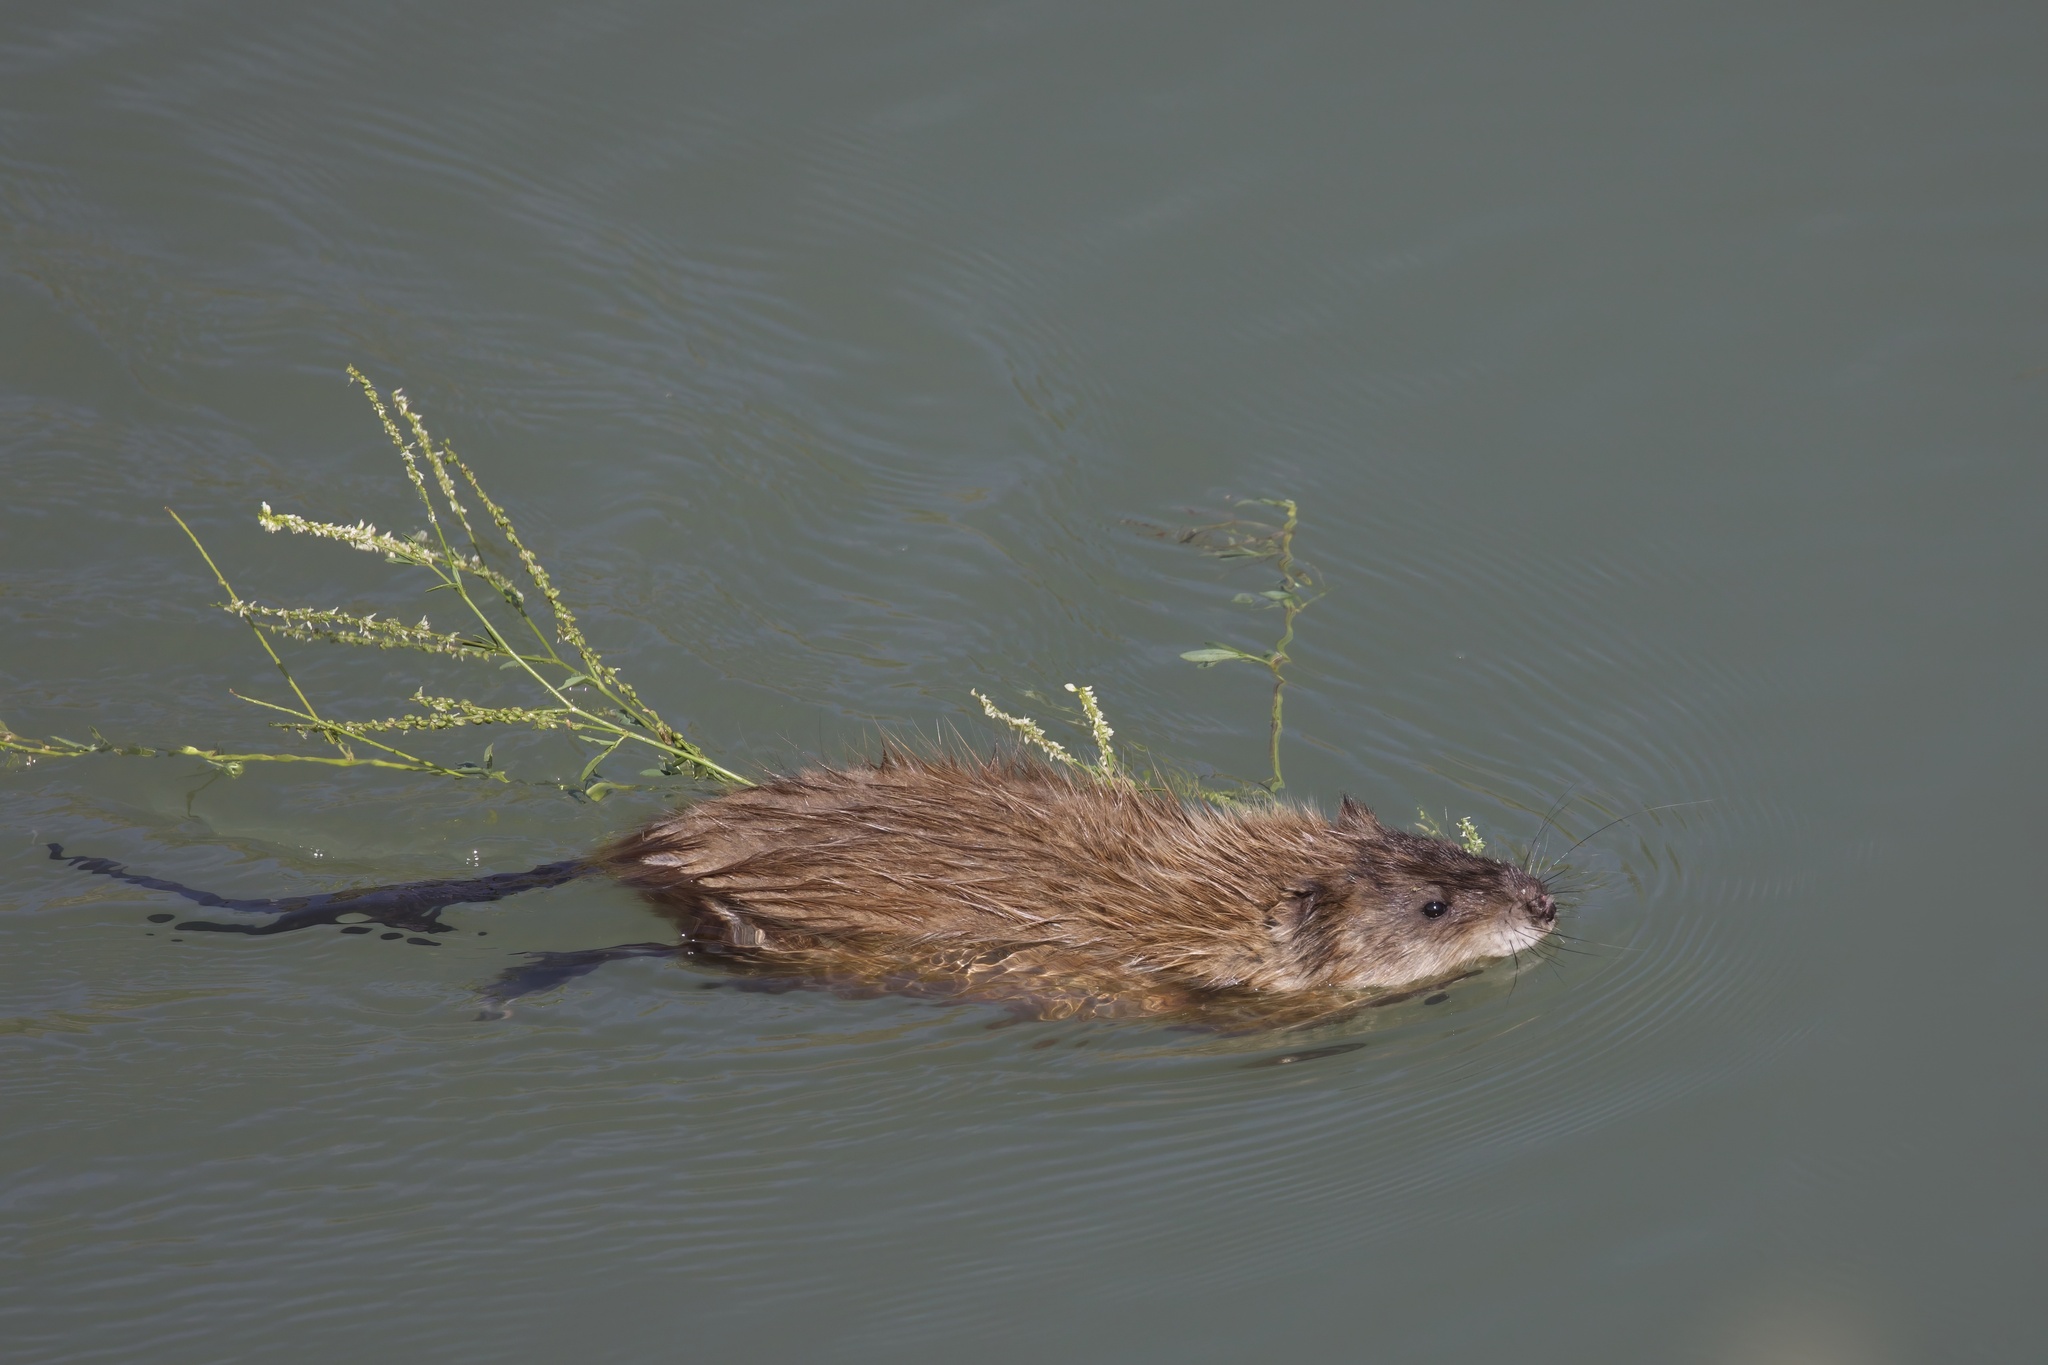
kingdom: Animalia
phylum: Chordata
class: Mammalia
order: Rodentia
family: Cricetidae
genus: Ondatra
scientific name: Ondatra zibethicus
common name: Muskrat
